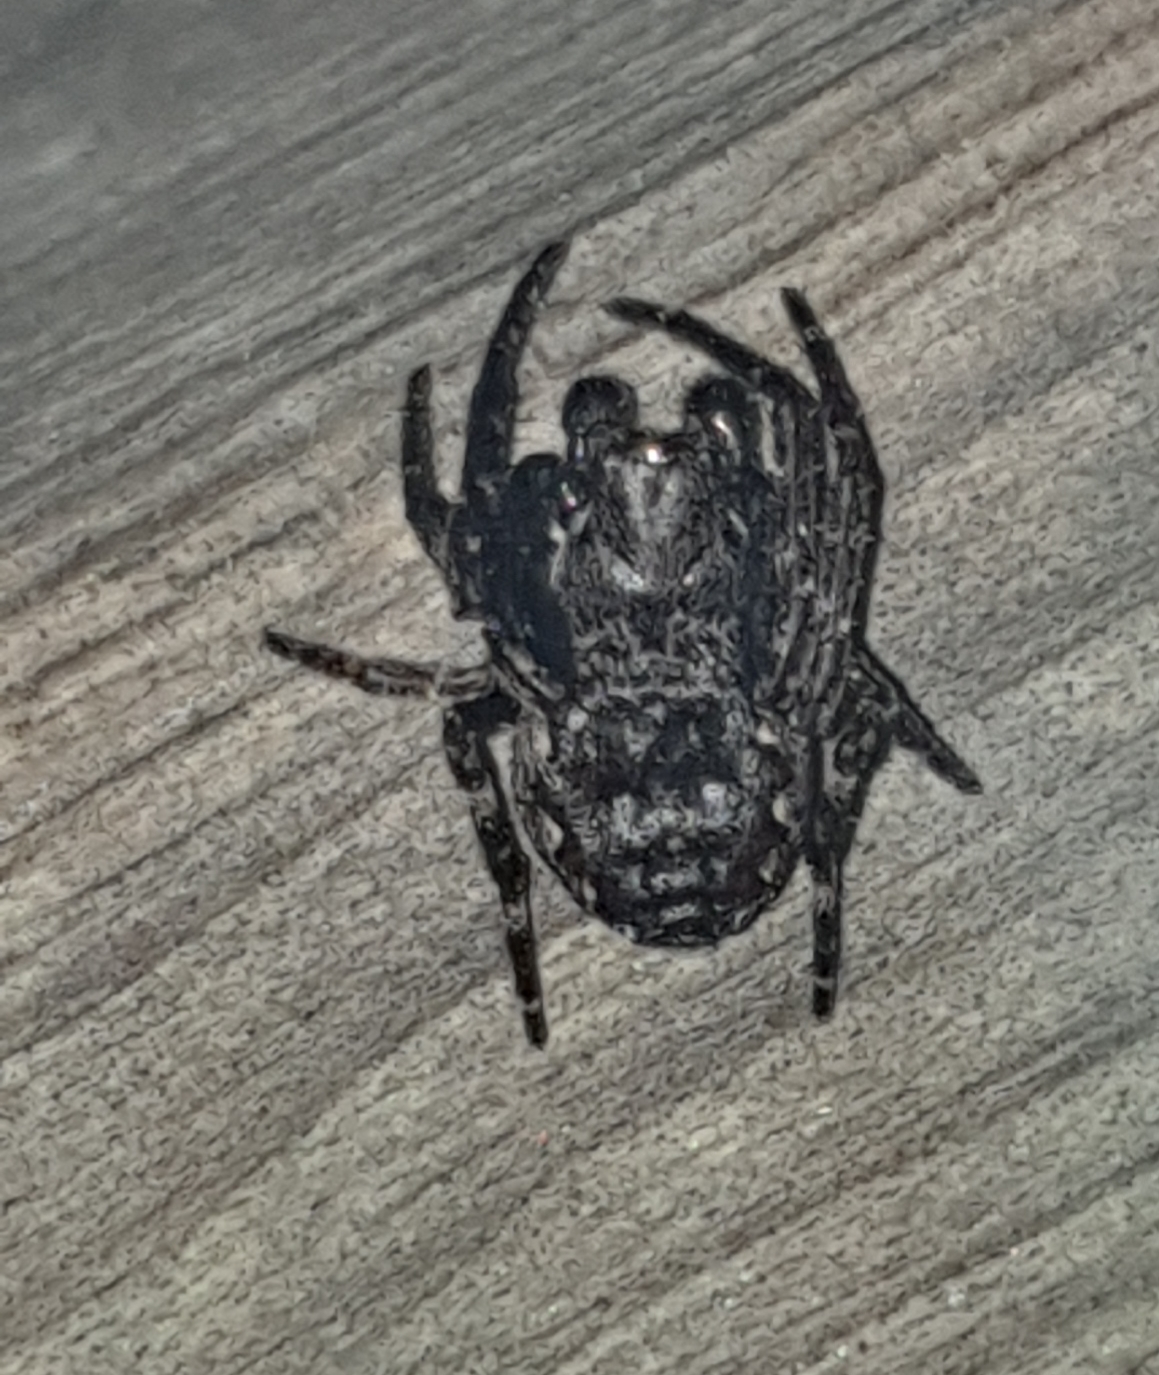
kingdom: Animalia
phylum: Arthropoda
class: Arachnida
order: Araneae
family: Araneidae
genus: Nuctenea
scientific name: Nuctenea umbratica
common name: Toad spider
